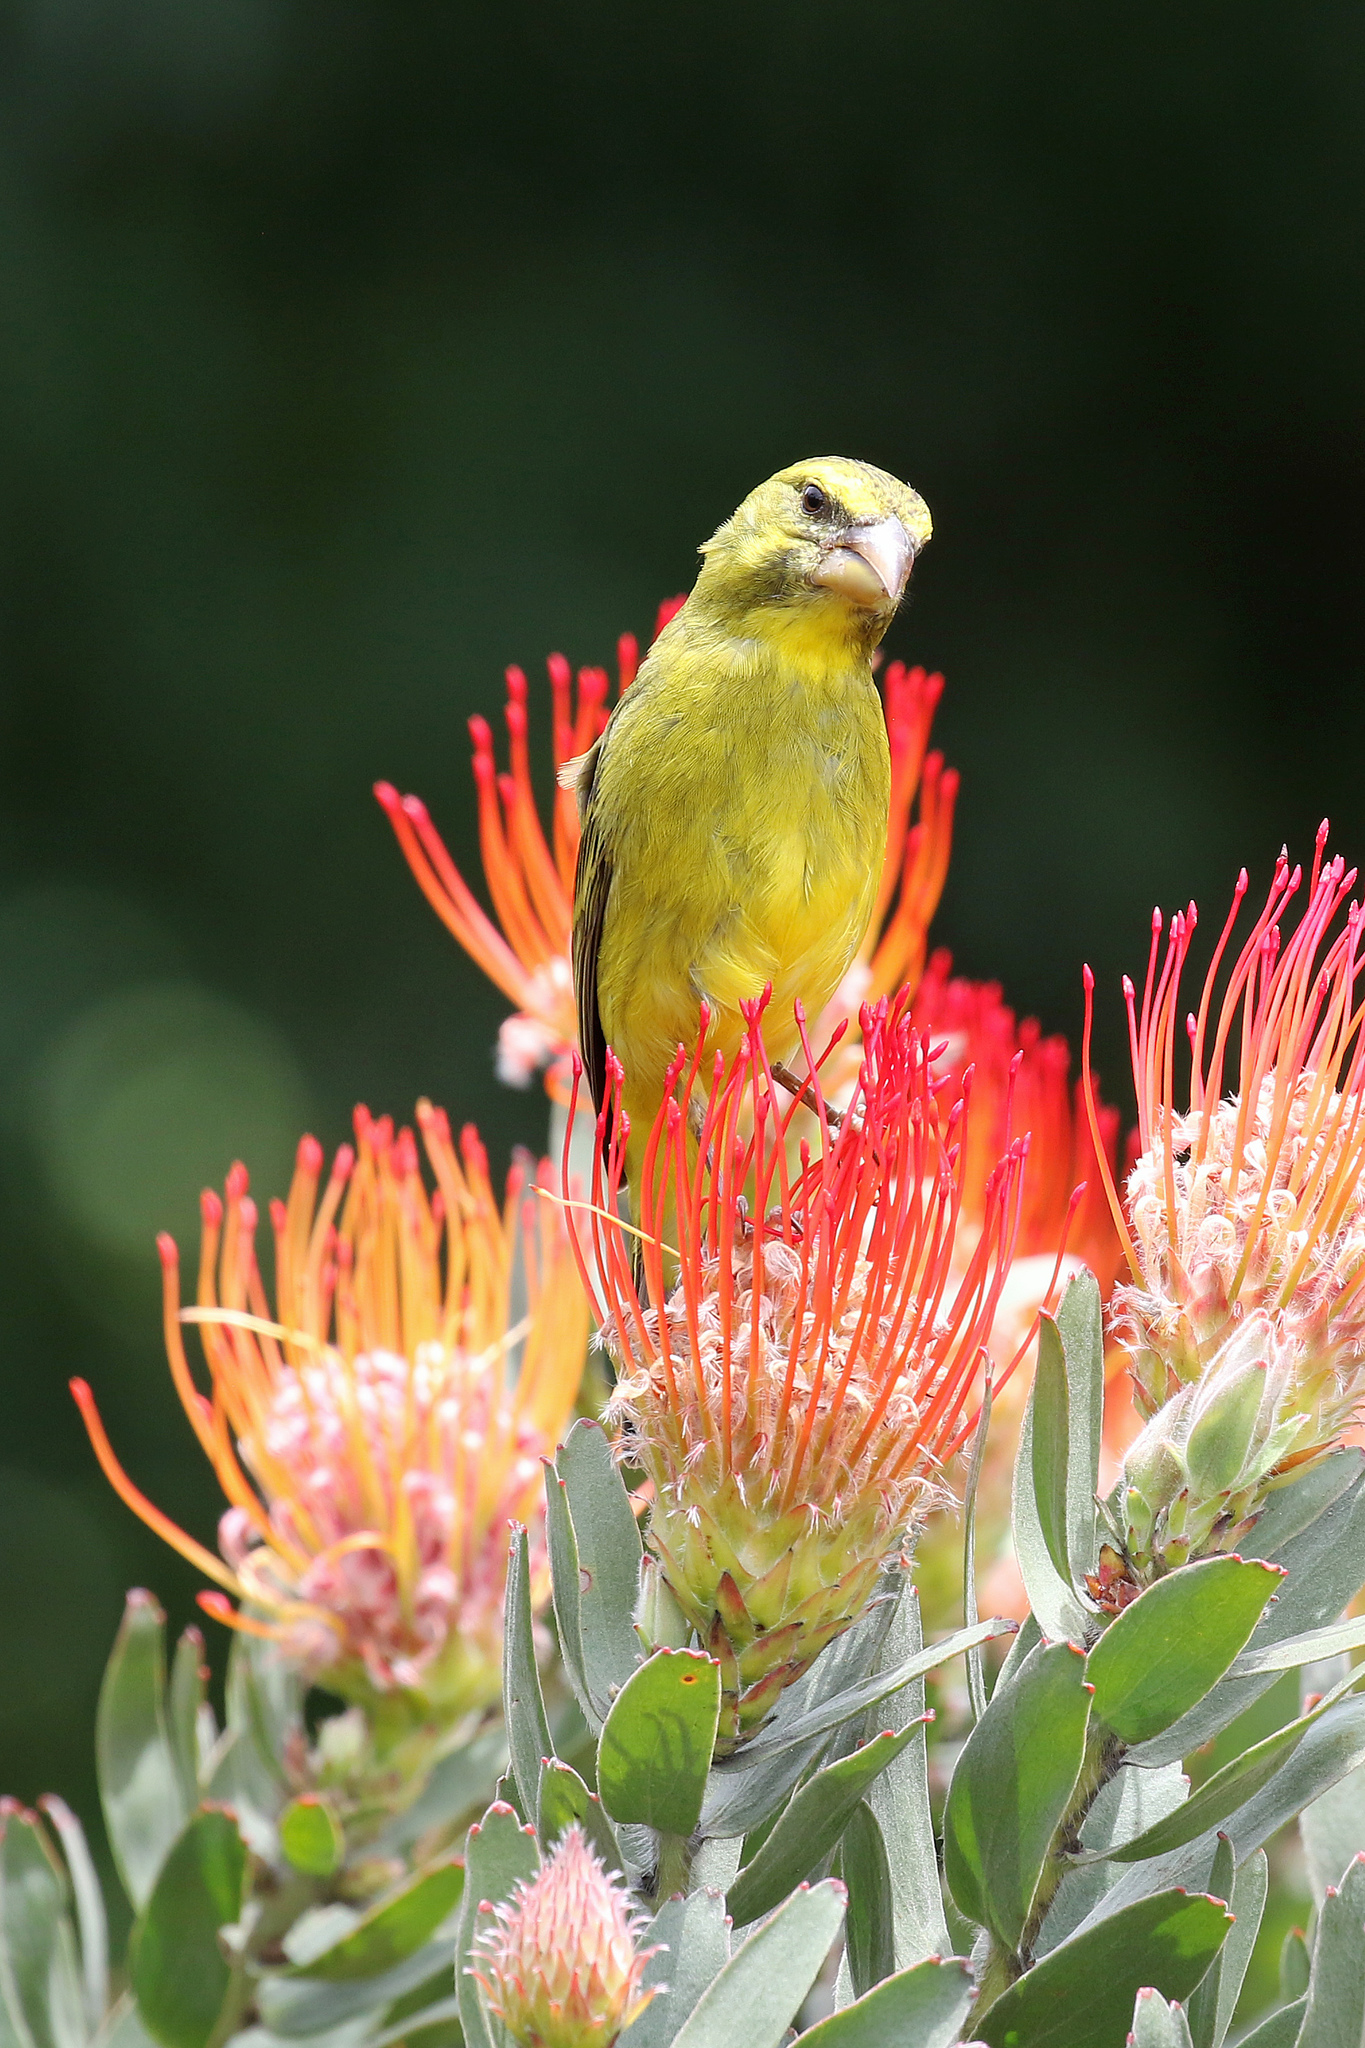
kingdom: Animalia
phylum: Chordata
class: Aves
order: Passeriformes
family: Fringillidae
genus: Crithagra
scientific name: Crithagra sulphurata
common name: Brimstone canary
